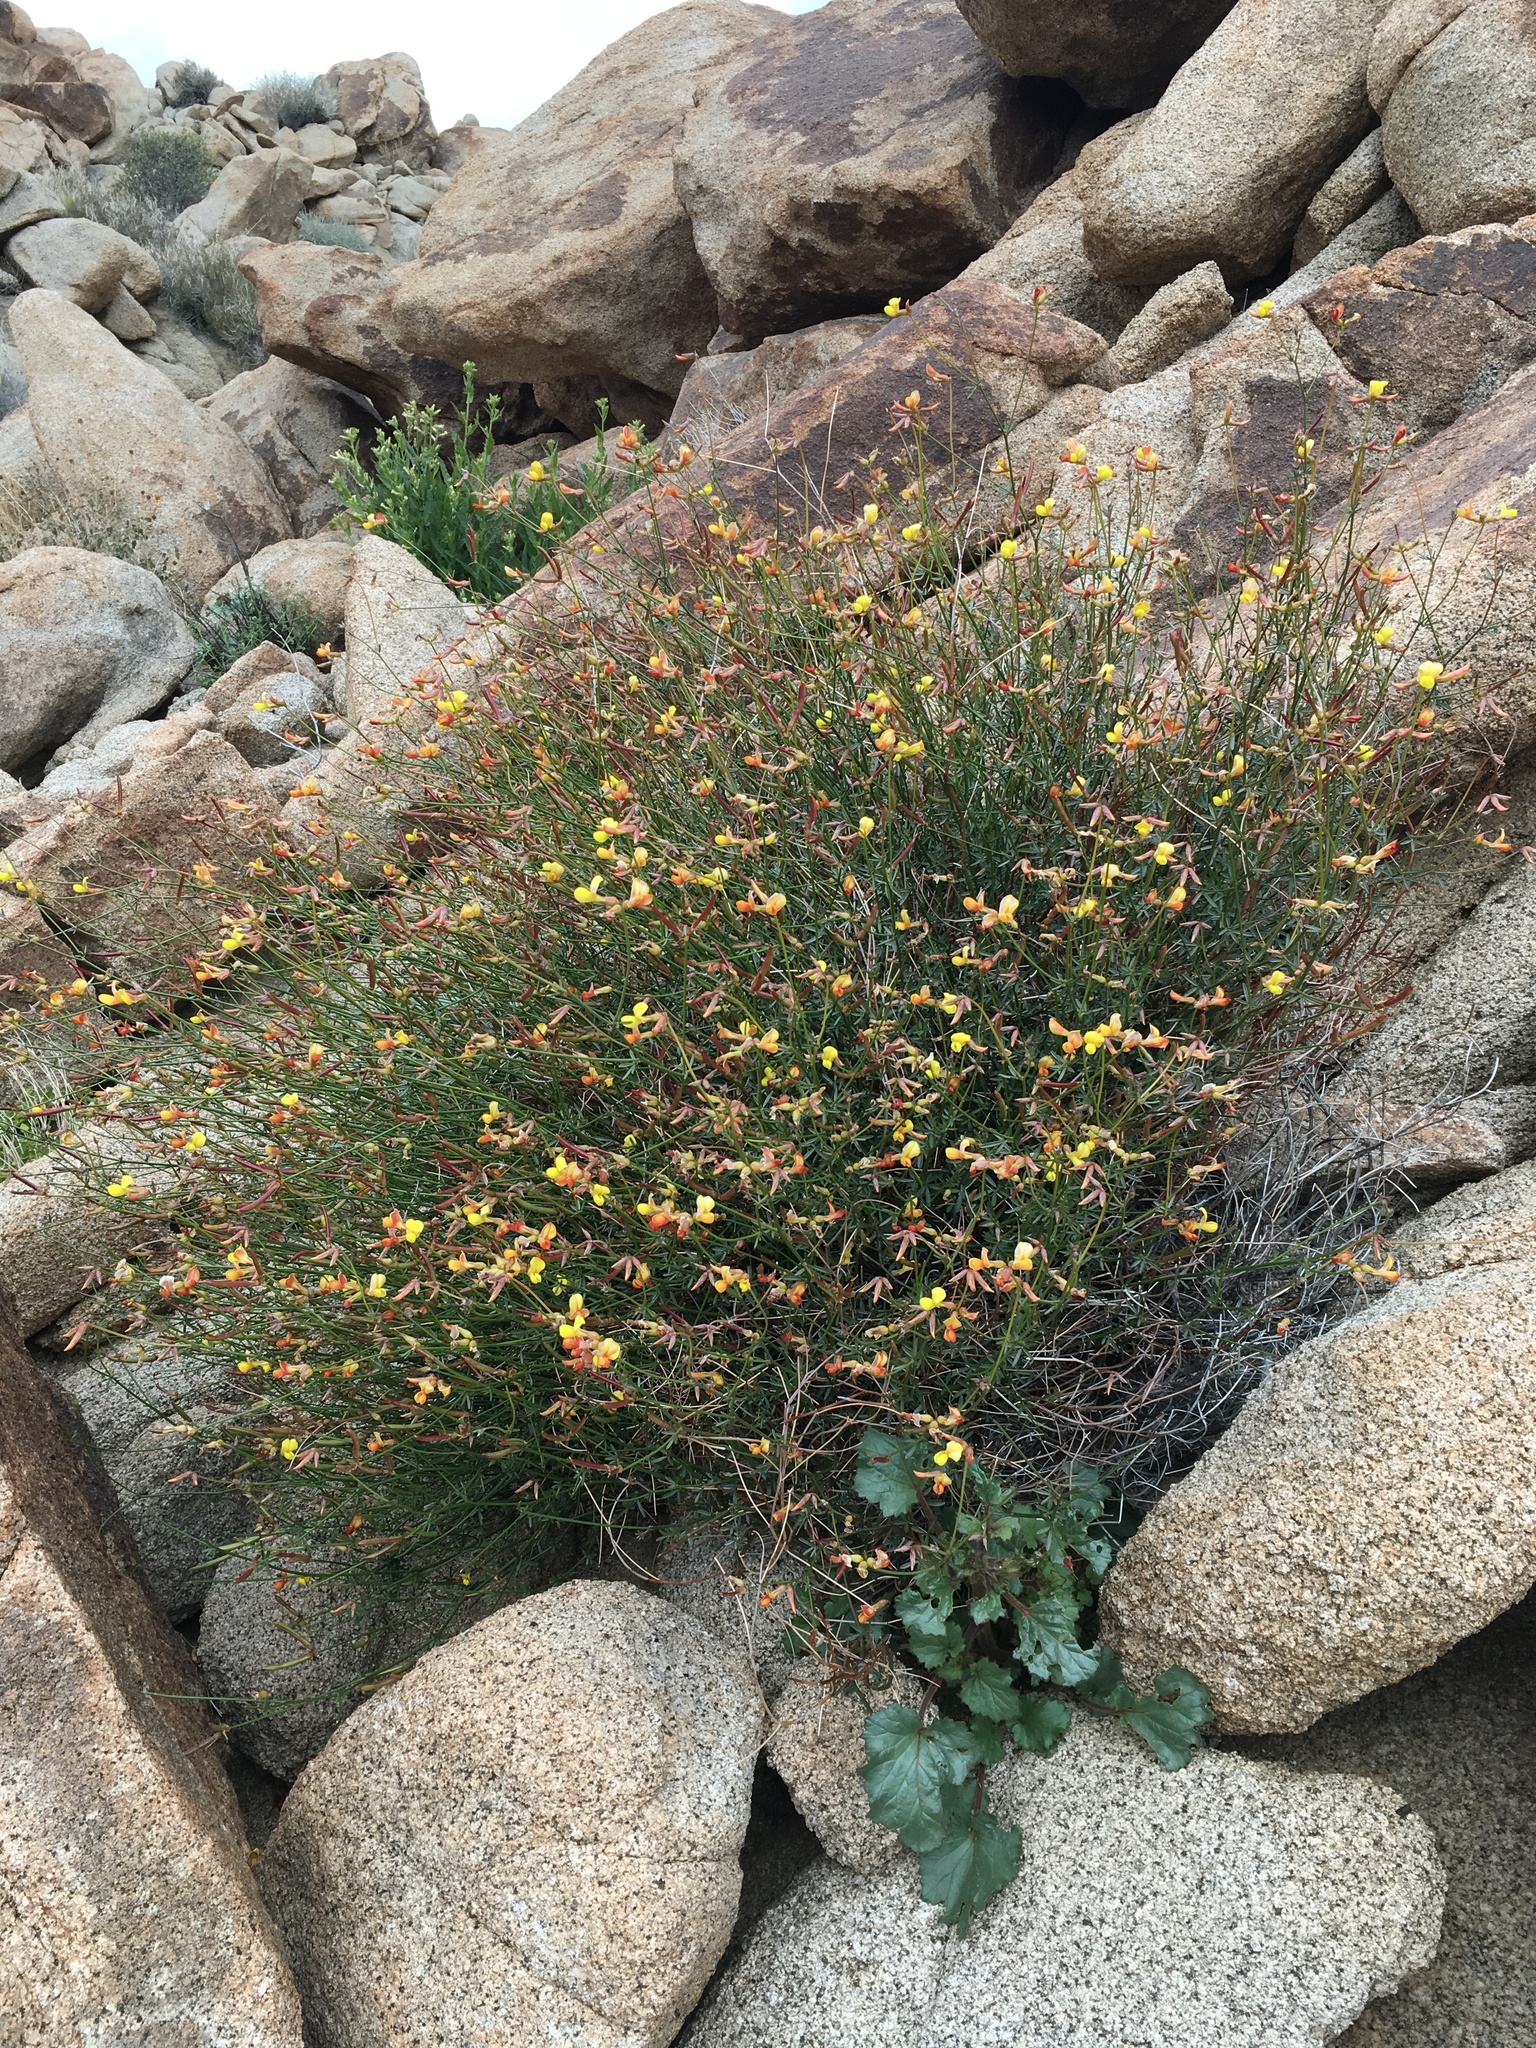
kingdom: Plantae
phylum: Tracheophyta
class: Magnoliopsida
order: Fabales
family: Fabaceae
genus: Acmispon
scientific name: Acmispon rigidus
